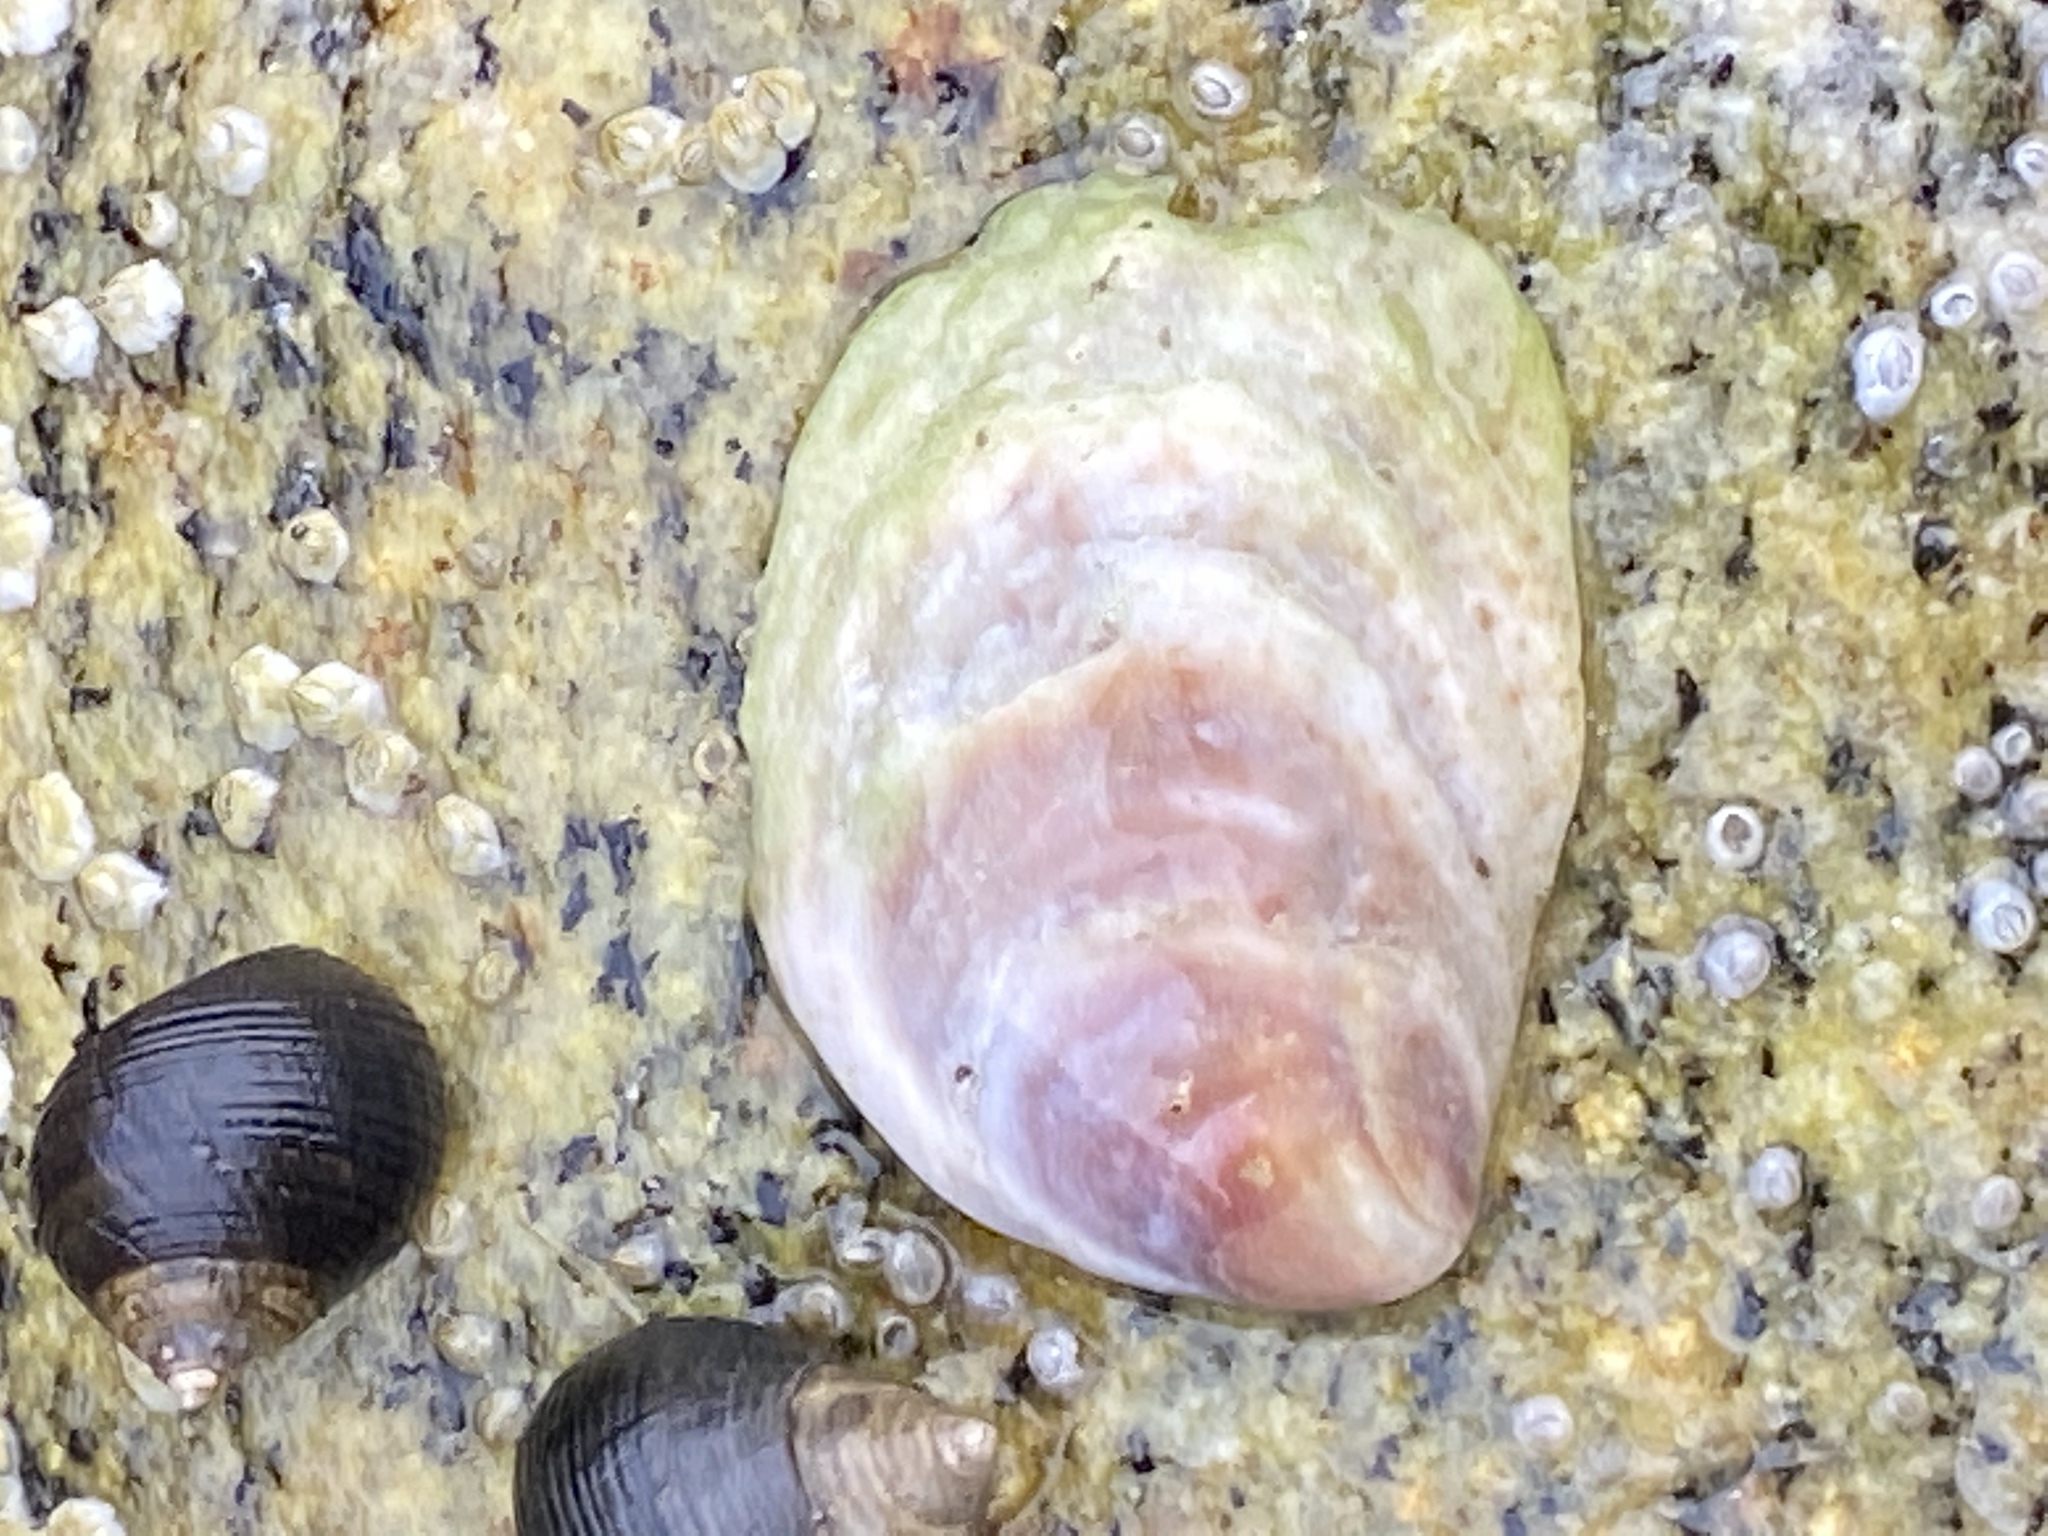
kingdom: Animalia
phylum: Mollusca
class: Gastropoda
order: Littorinimorpha
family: Calyptraeidae
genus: Crepidula
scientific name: Crepidula fornicata
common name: Slipper limpet
